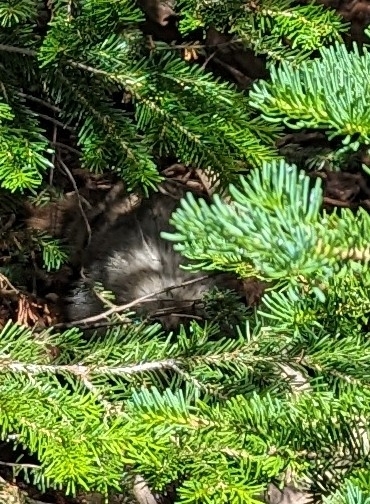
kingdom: Animalia
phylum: Chordata
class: Mammalia
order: Rodentia
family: Sciuridae
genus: Marmota
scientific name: Marmota caligata
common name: Hoary marmot
